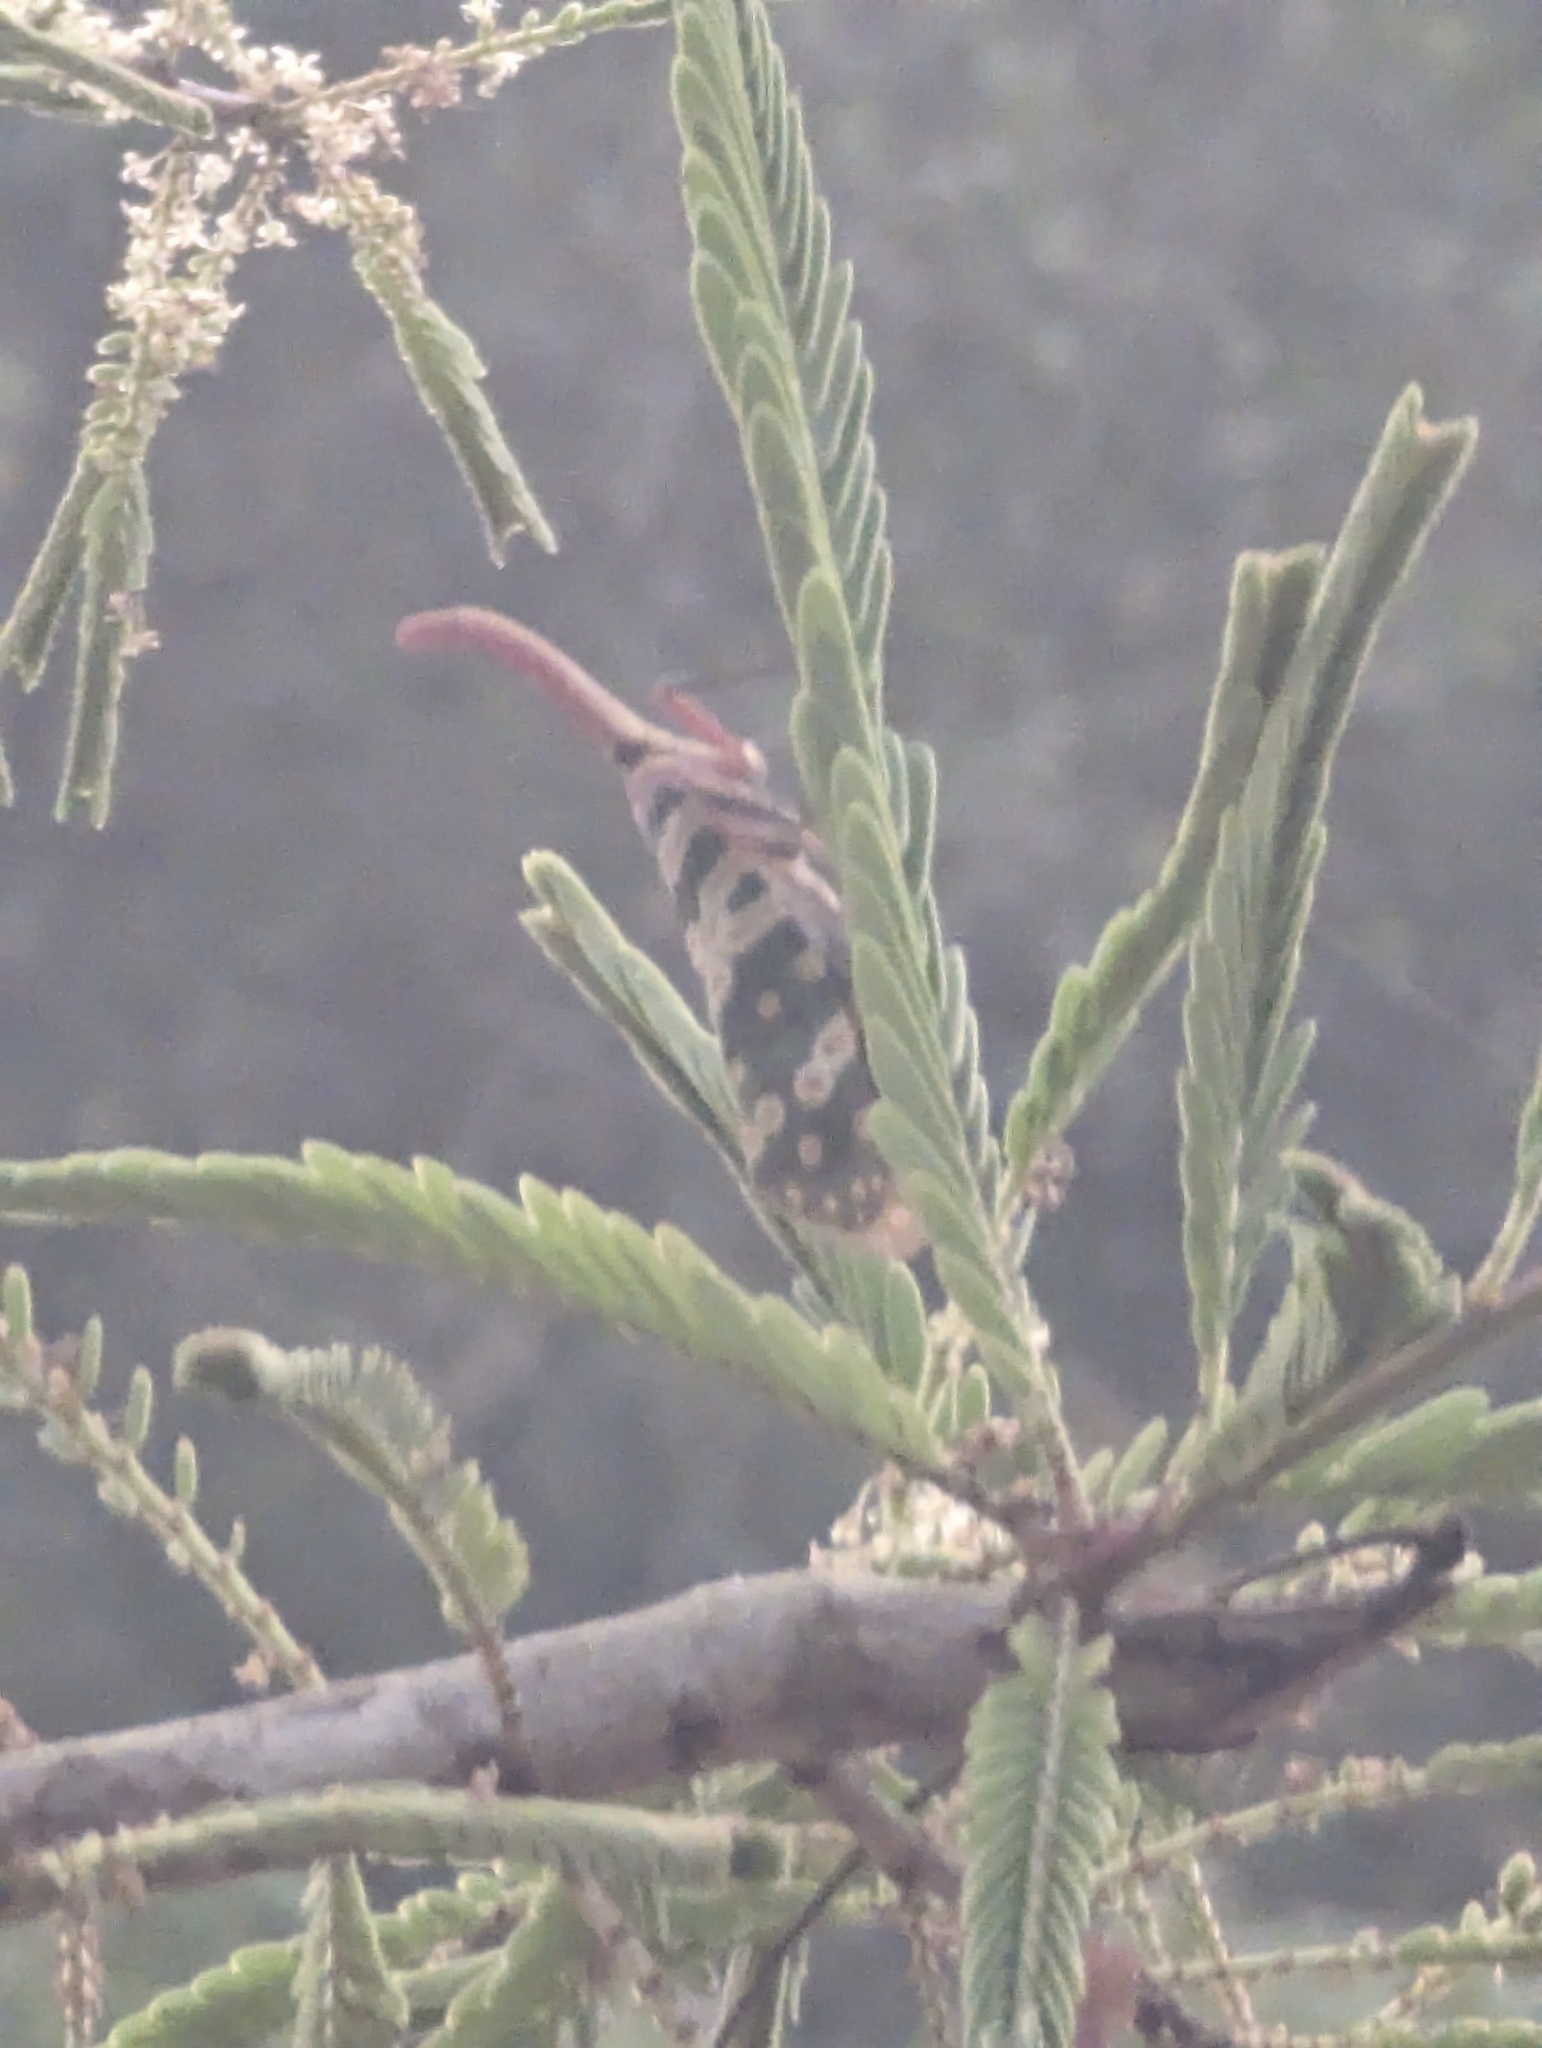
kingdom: Animalia
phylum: Arthropoda
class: Insecta
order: Hemiptera
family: Fulgoridae
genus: Pyrops
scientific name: Pyrops candelaria
